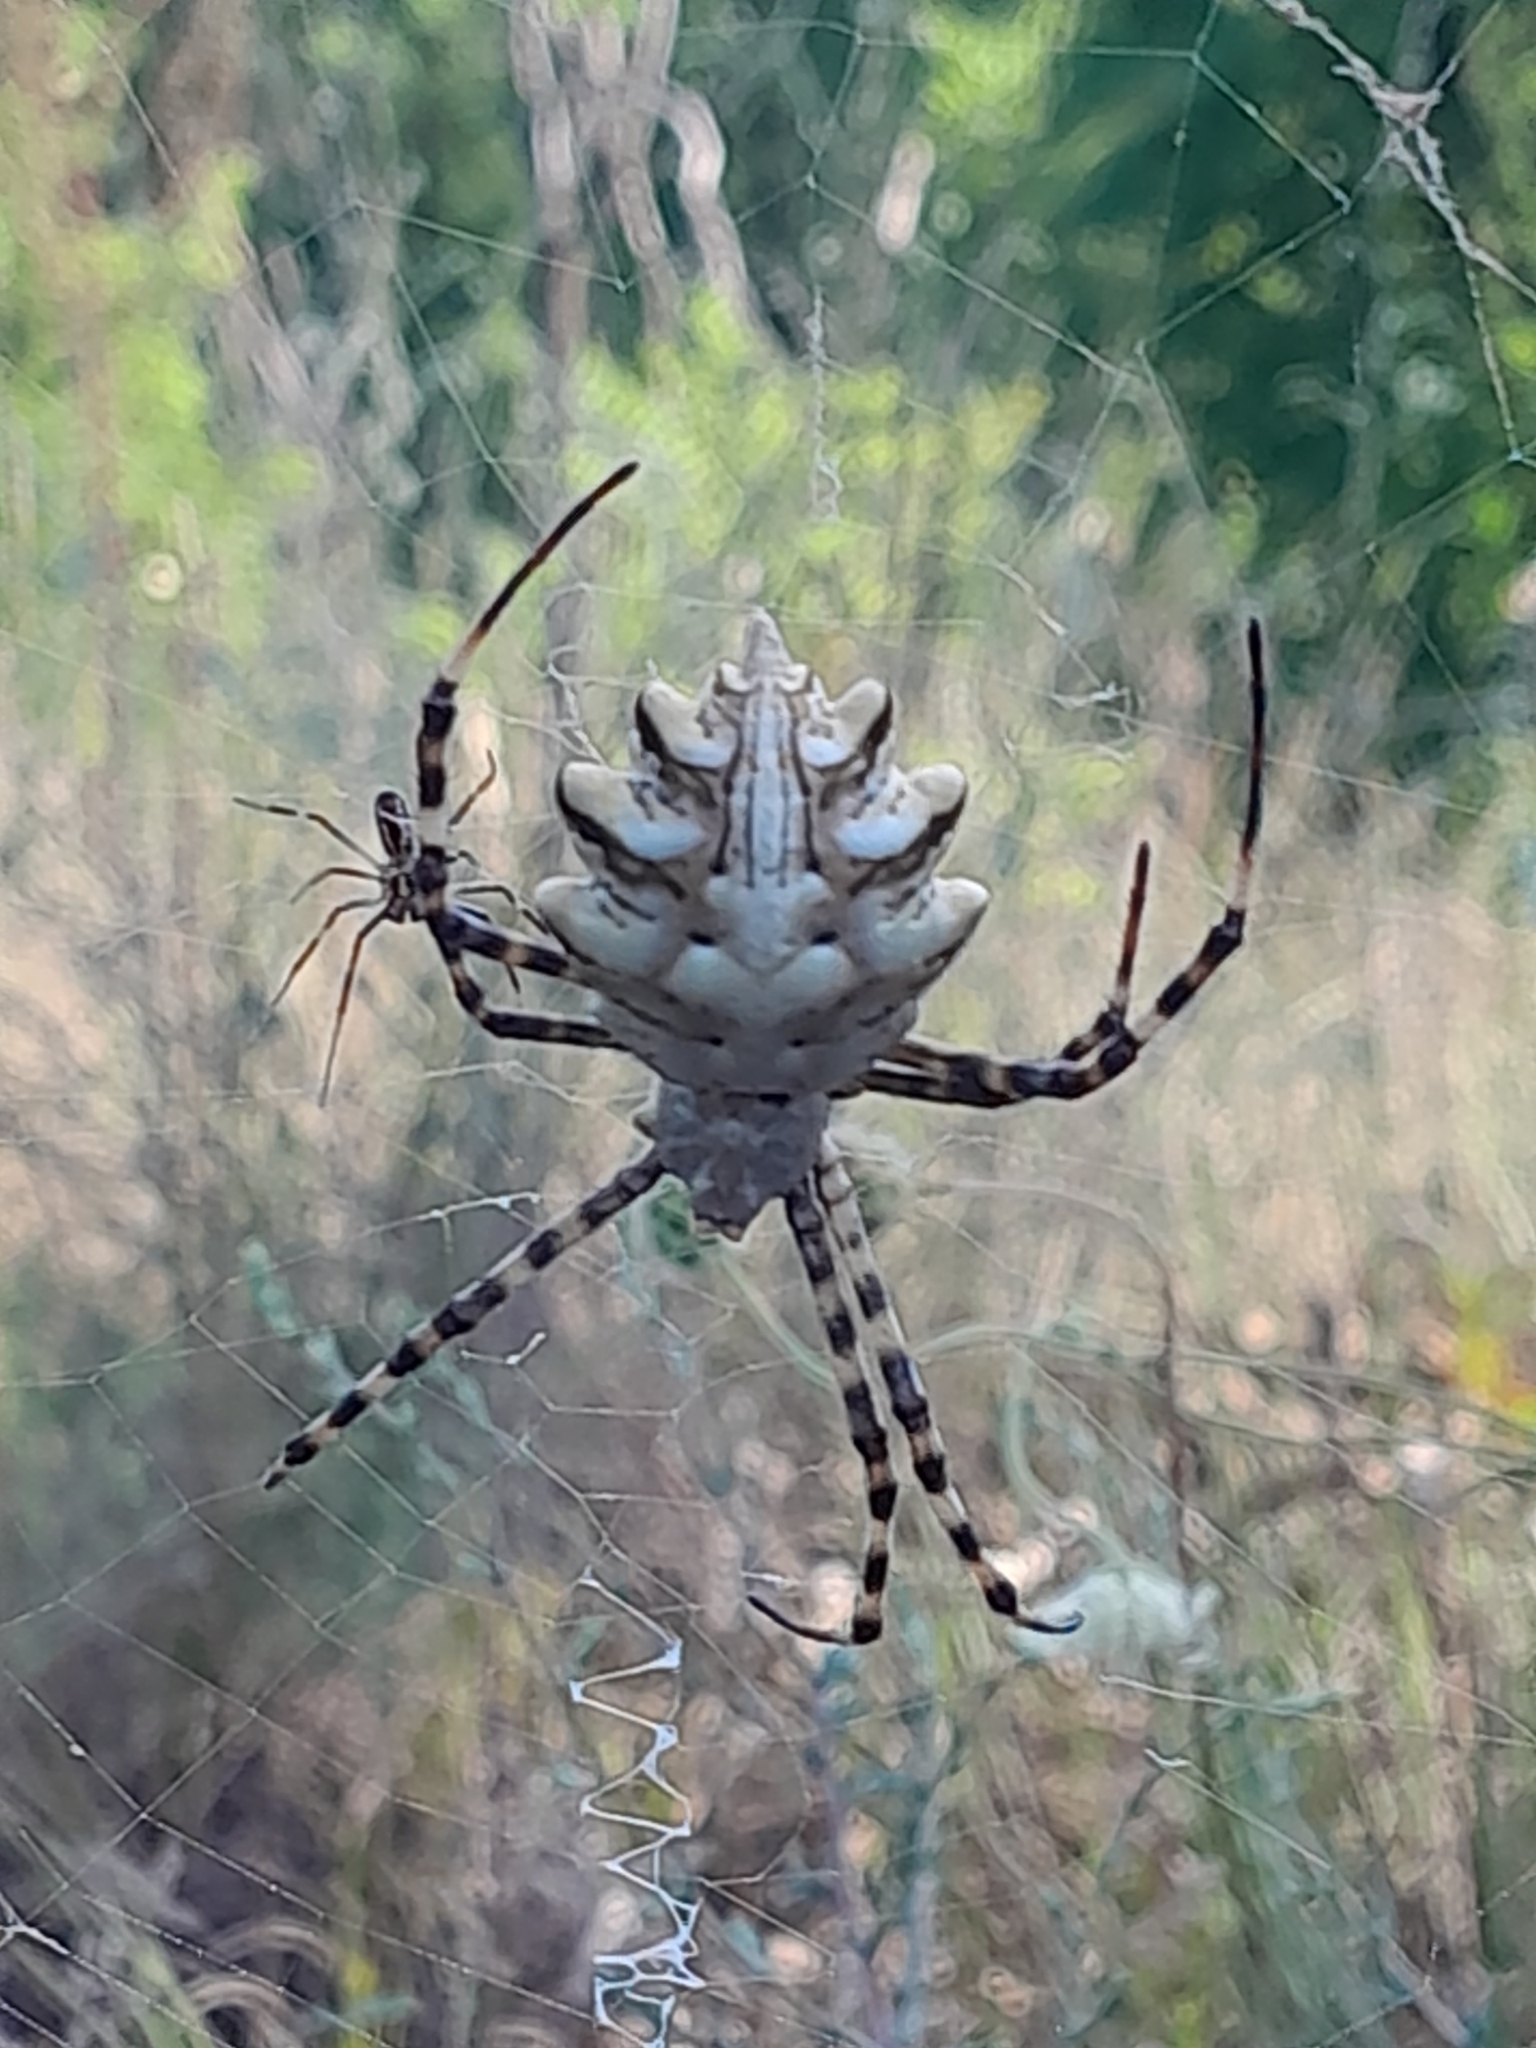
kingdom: Animalia
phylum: Arthropoda
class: Arachnida
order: Araneae
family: Araneidae
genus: Argiope
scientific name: Argiope lobata
